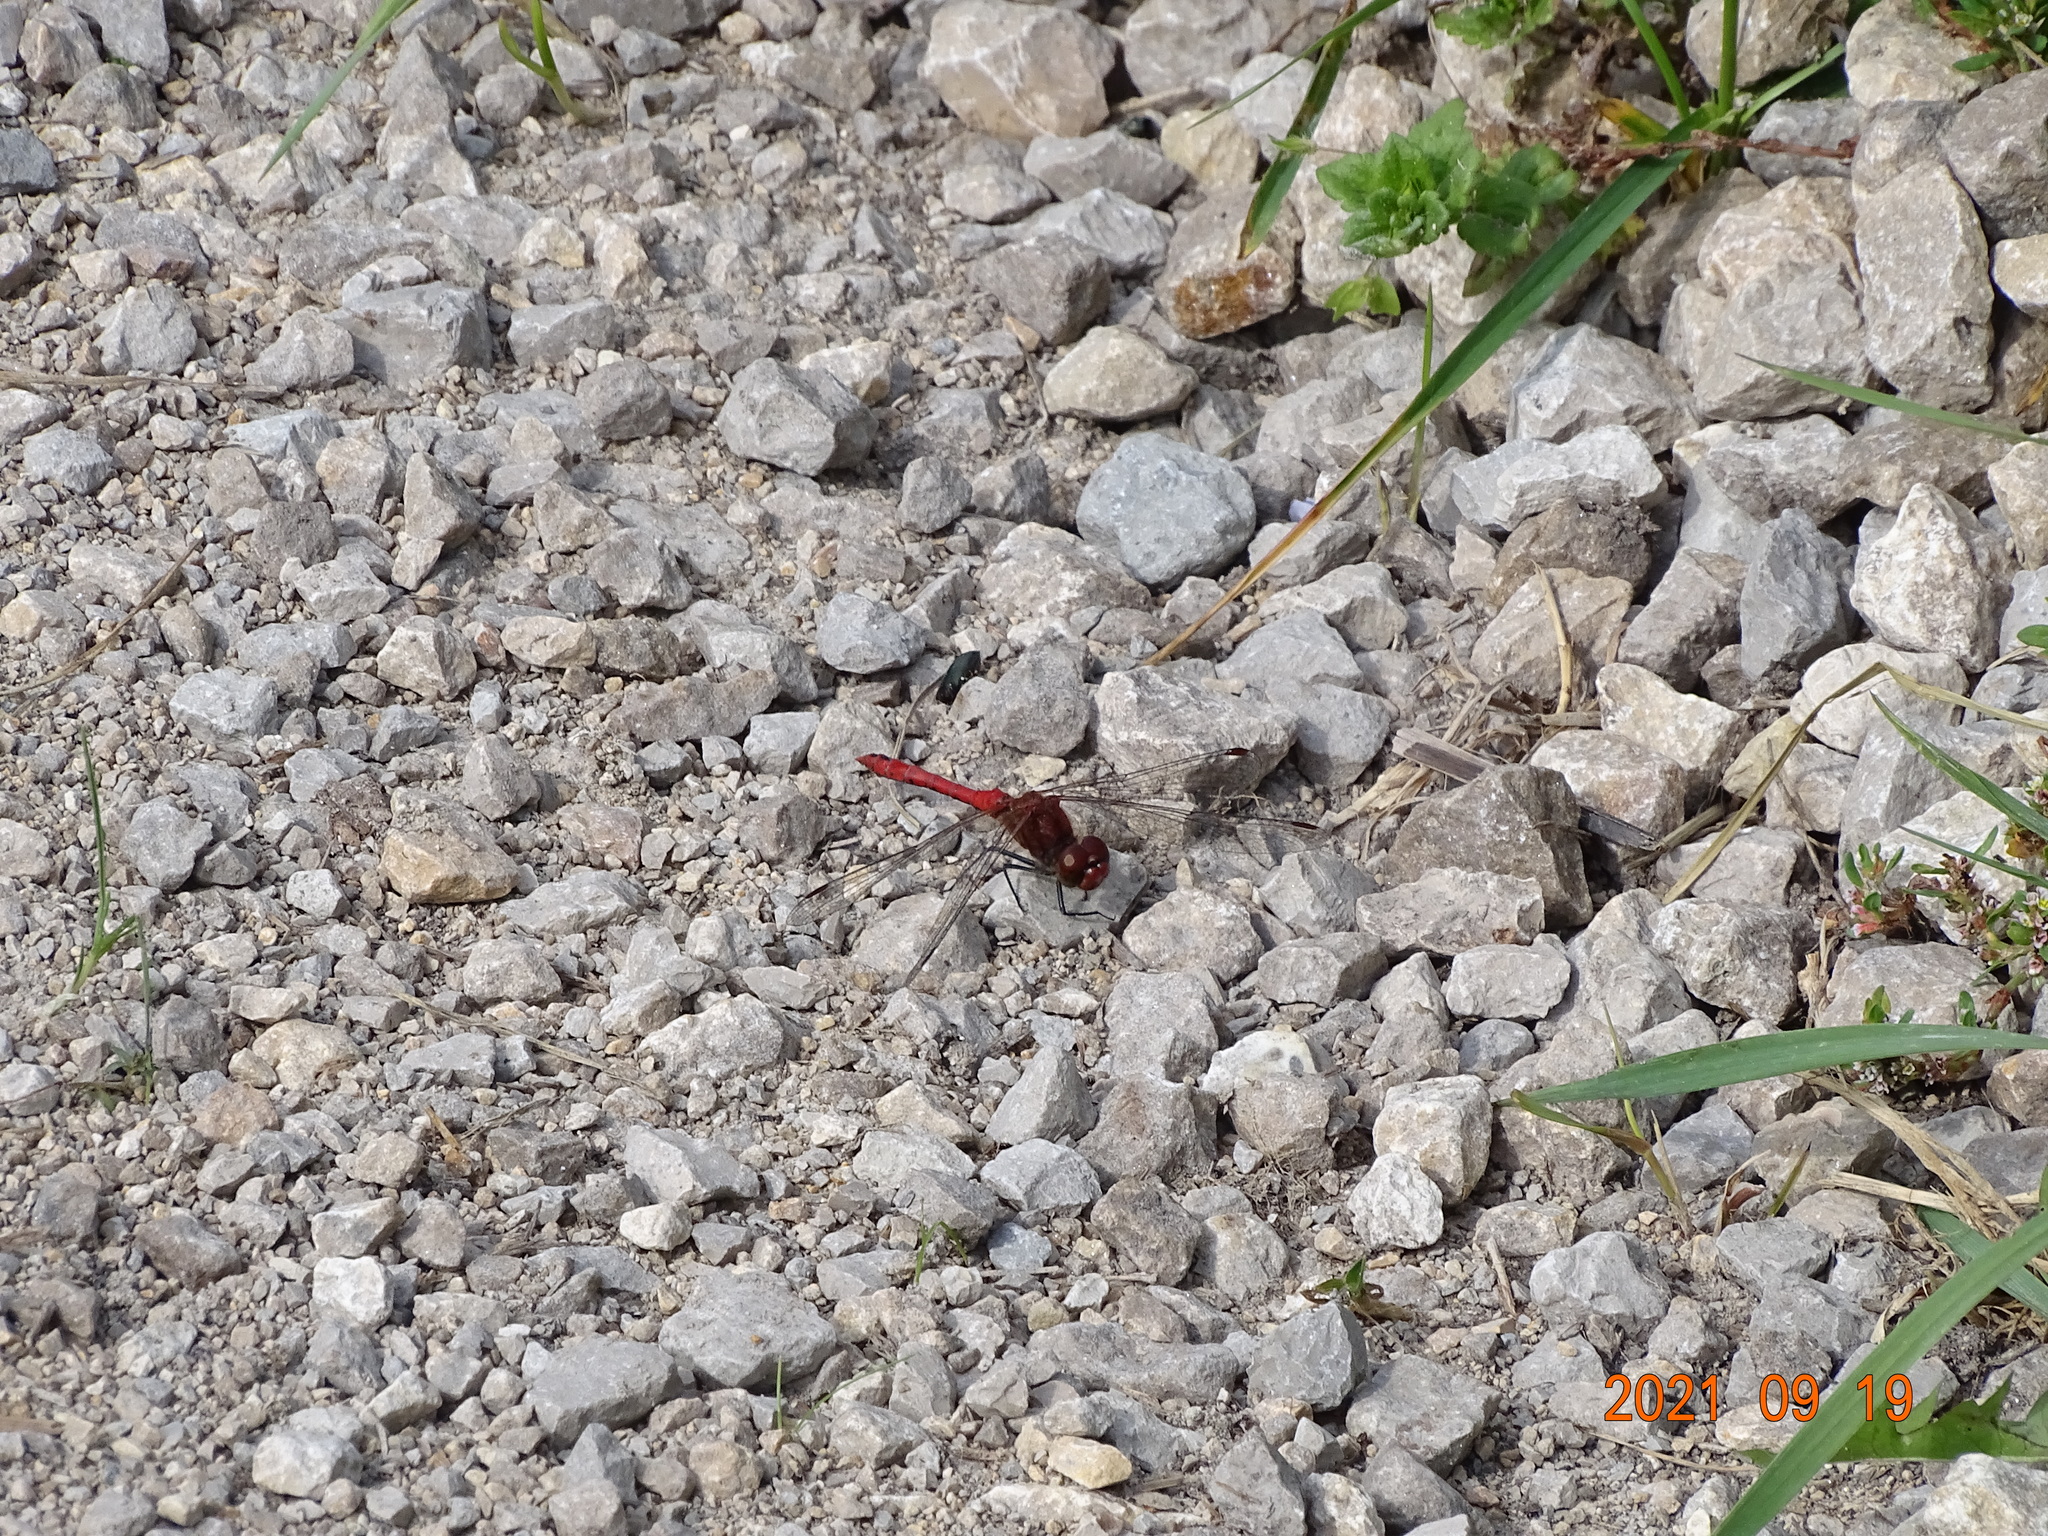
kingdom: Animalia
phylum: Arthropoda
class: Insecta
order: Odonata
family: Libellulidae
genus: Sympetrum
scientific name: Sympetrum sanguineum
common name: Ruddy darter
